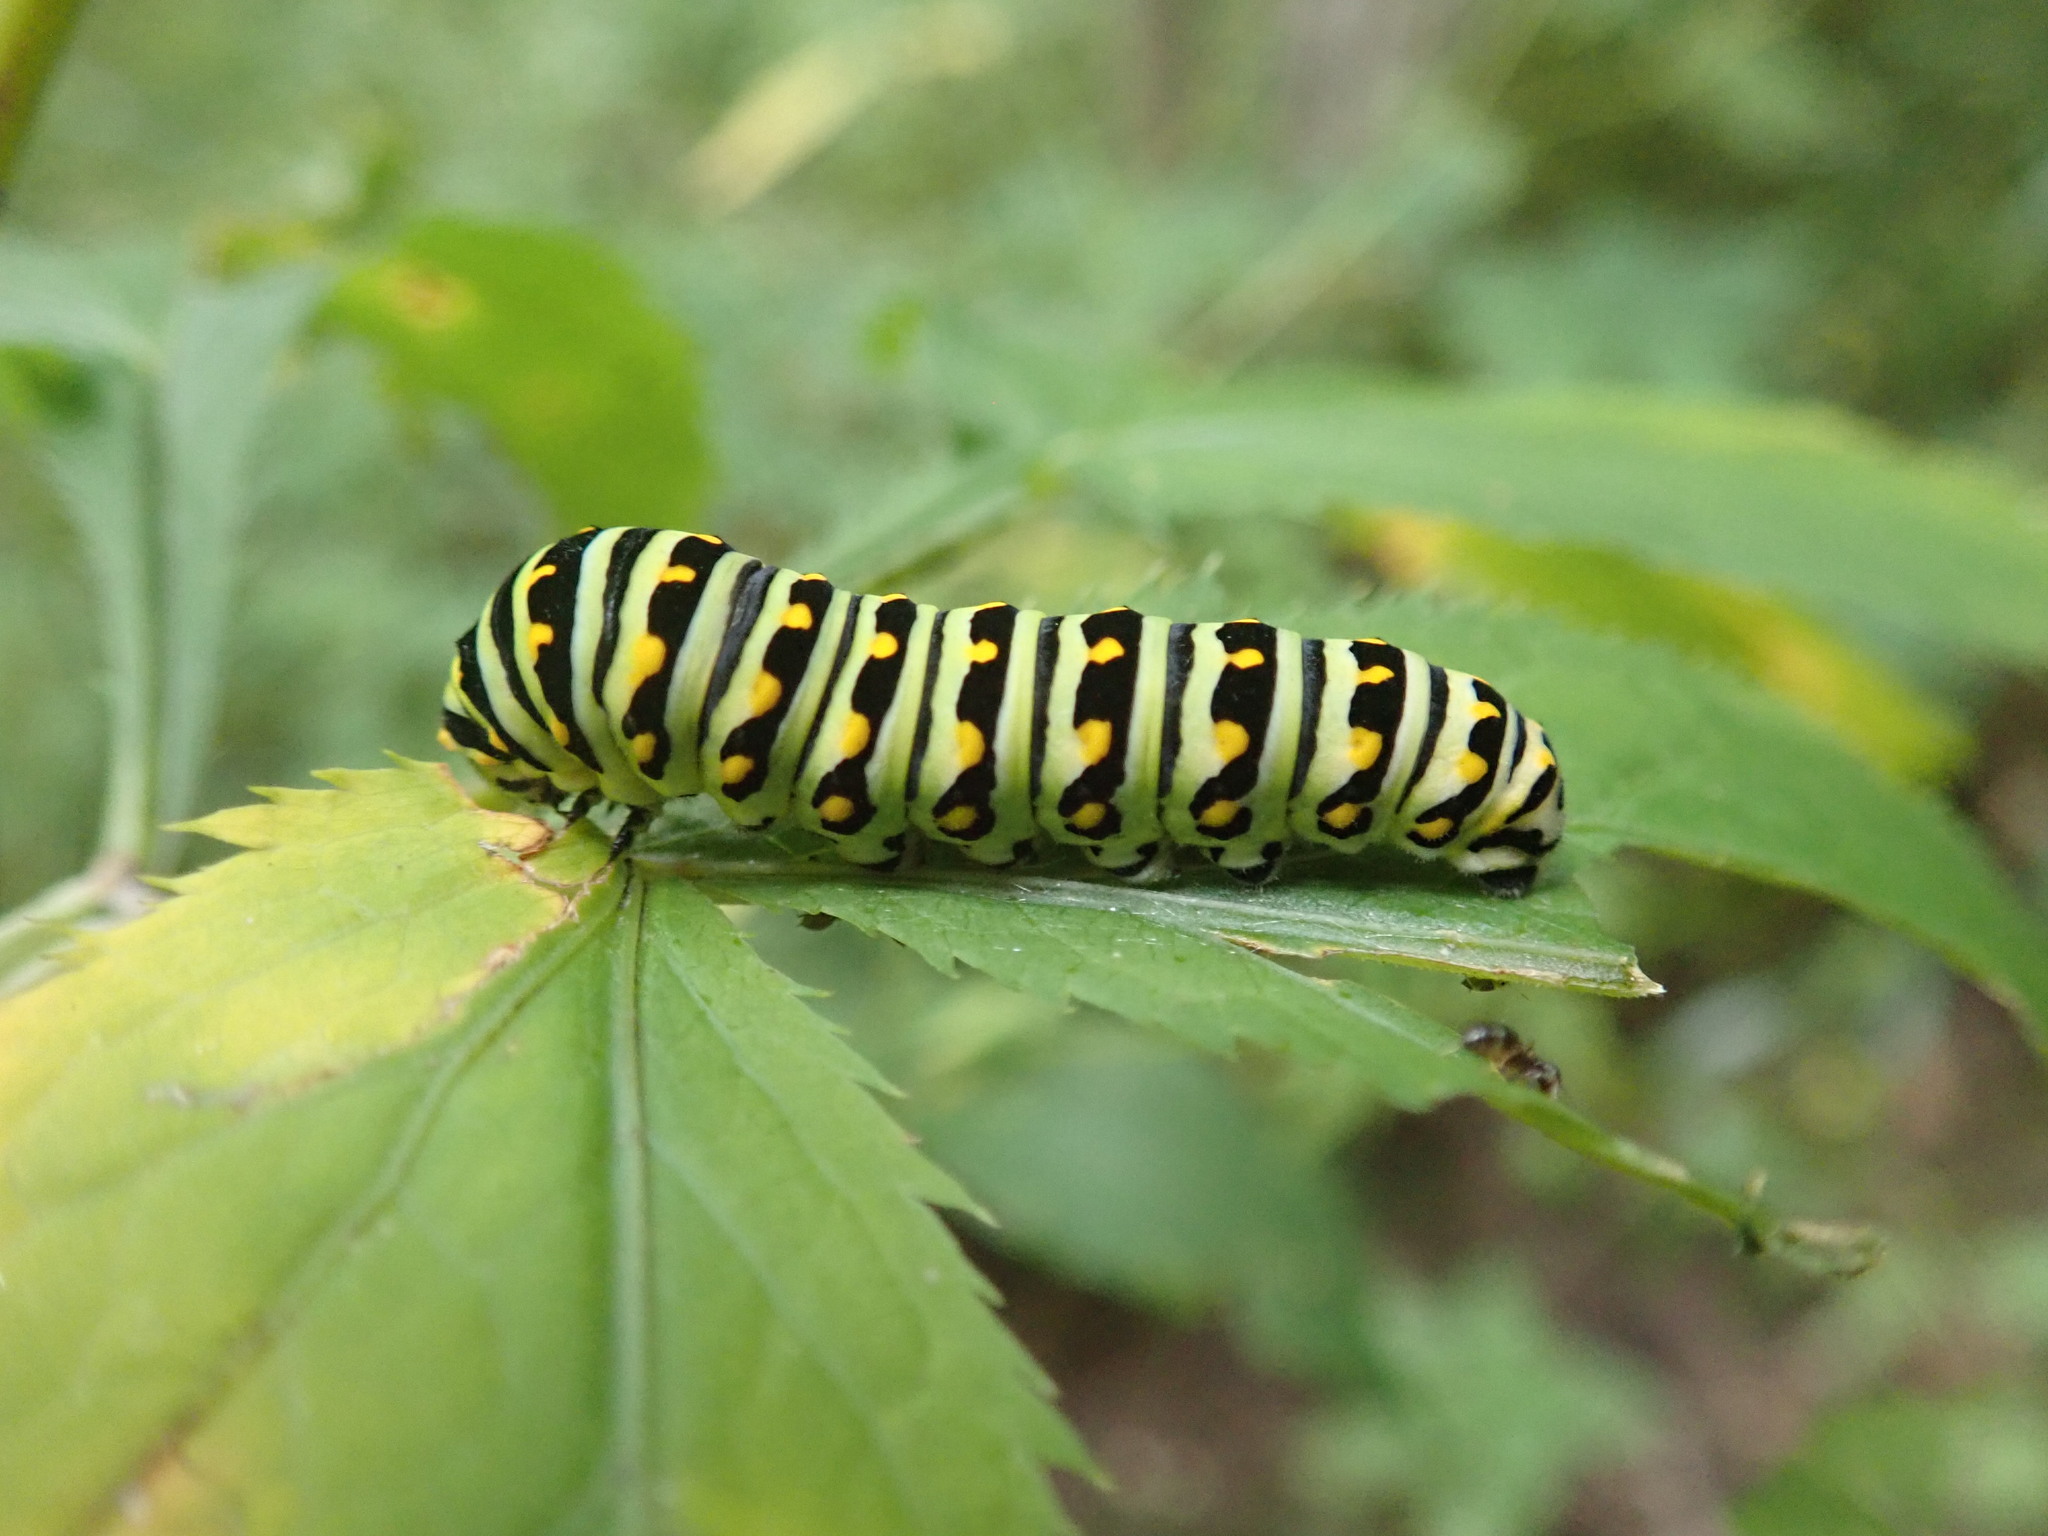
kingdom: Animalia
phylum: Arthropoda
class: Insecta
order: Lepidoptera
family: Papilionidae
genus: Papilio
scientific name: Papilio polyxenes
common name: Black swallowtail
